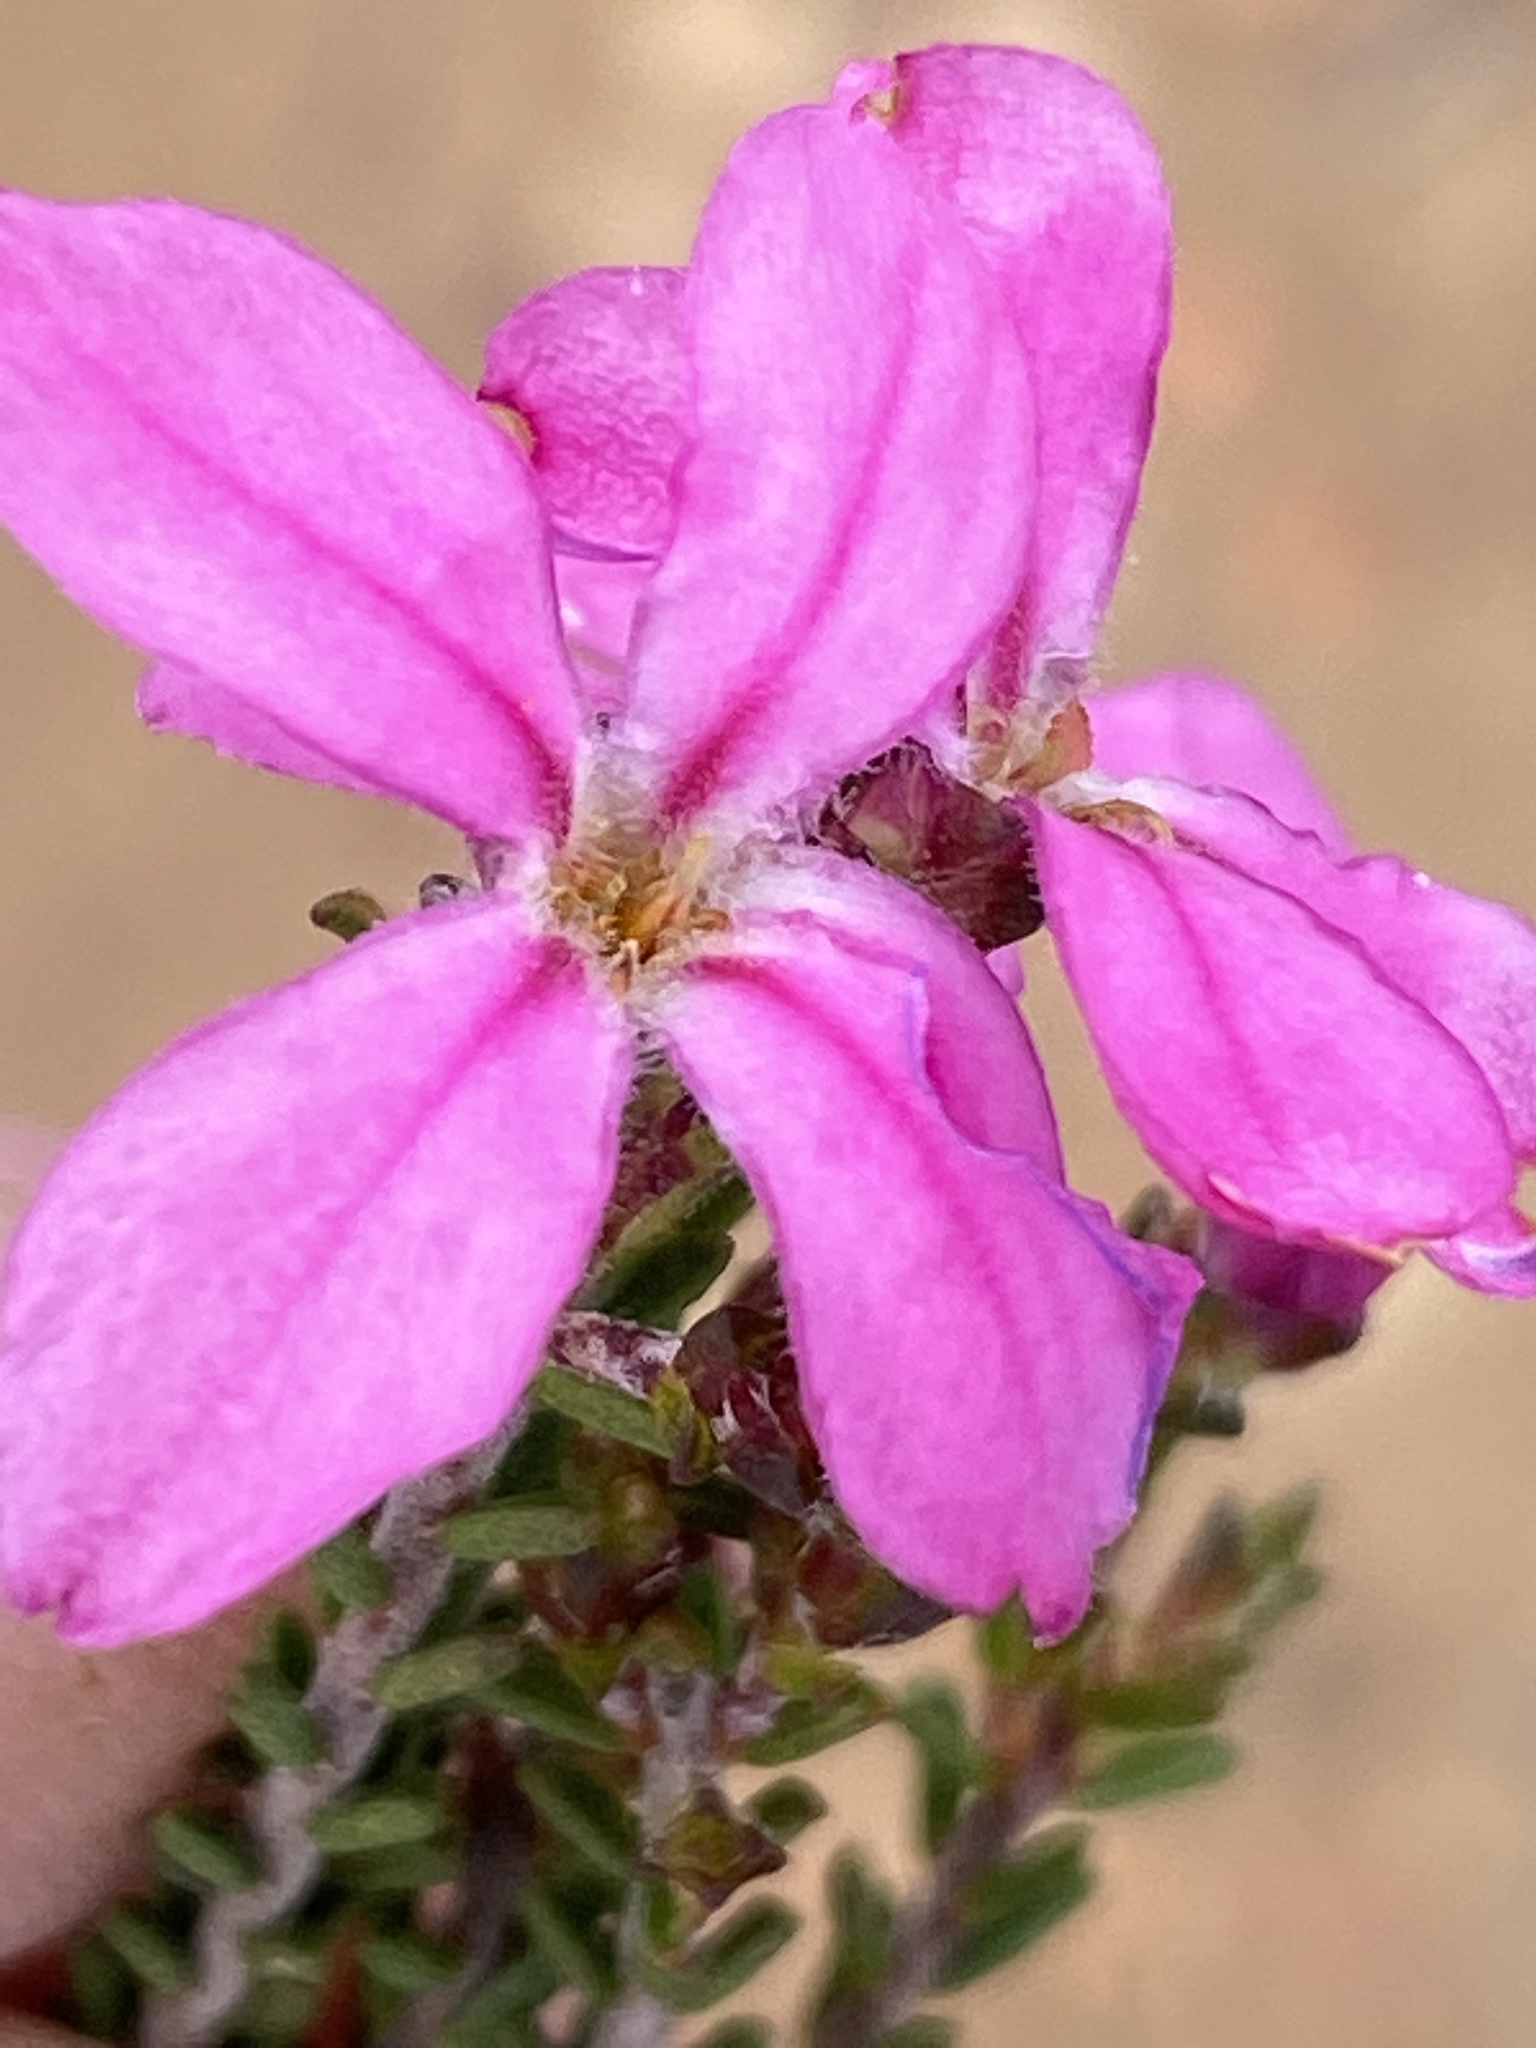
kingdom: Plantae
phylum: Tracheophyta
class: Magnoliopsida
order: Sapindales
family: Rutaceae
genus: Acmadenia
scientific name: Acmadenia sheilae
